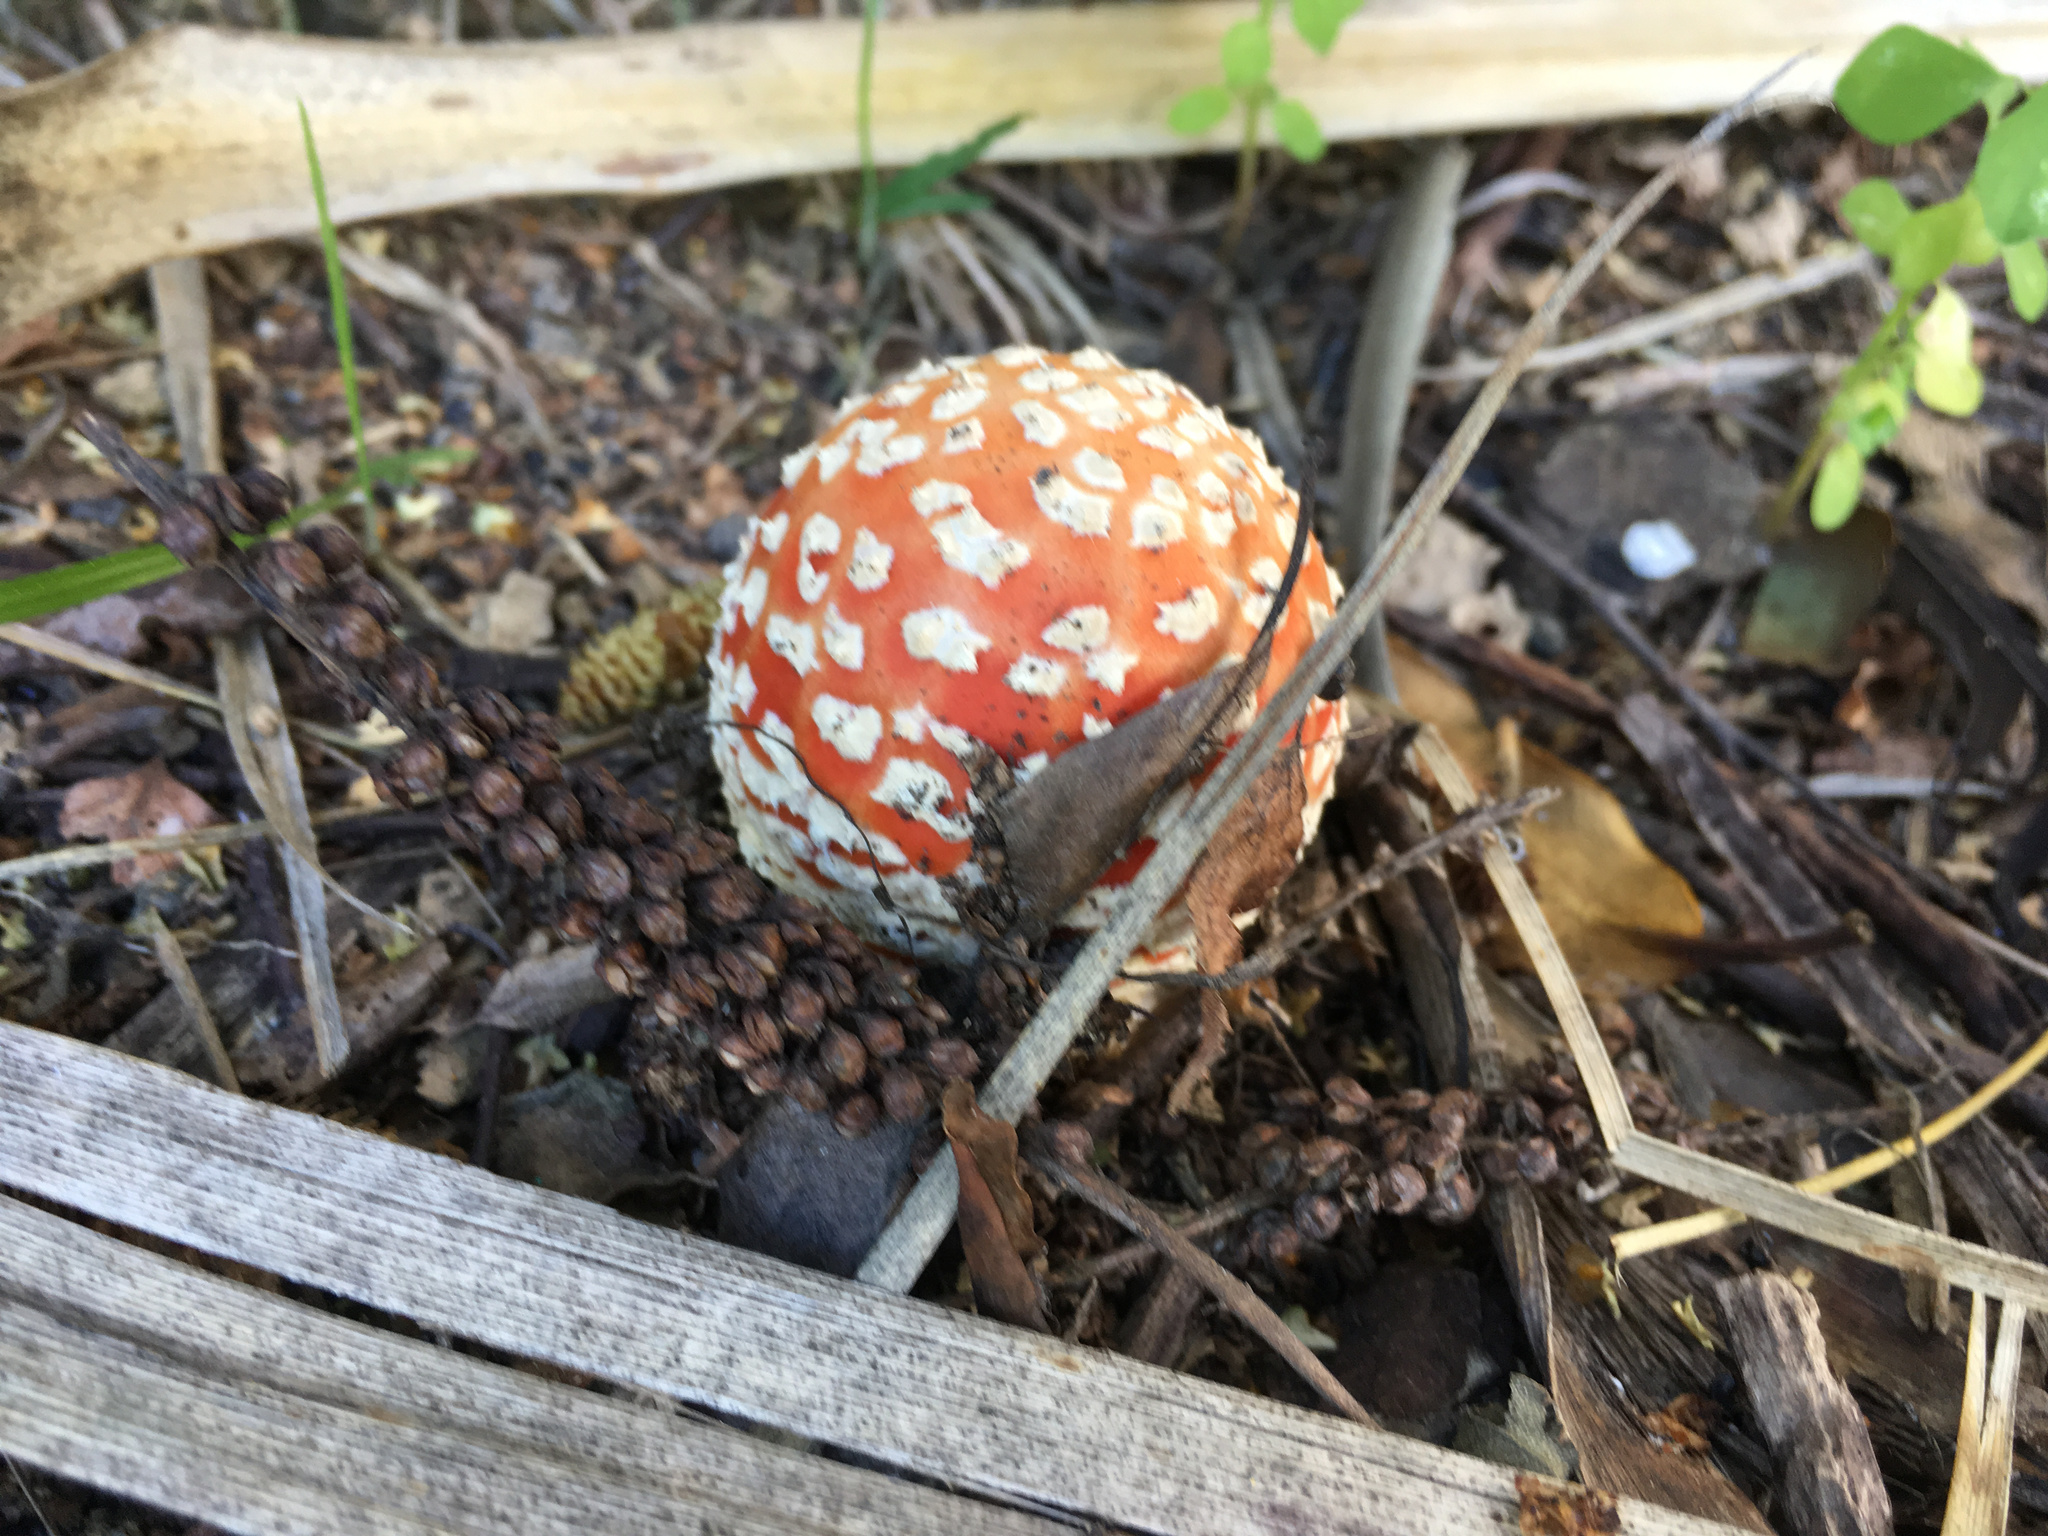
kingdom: Fungi
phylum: Basidiomycota
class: Agaricomycetes
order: Agaricales
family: Amanitaceae
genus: Amanita
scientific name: Amanita muscaria
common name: Fly agaric
